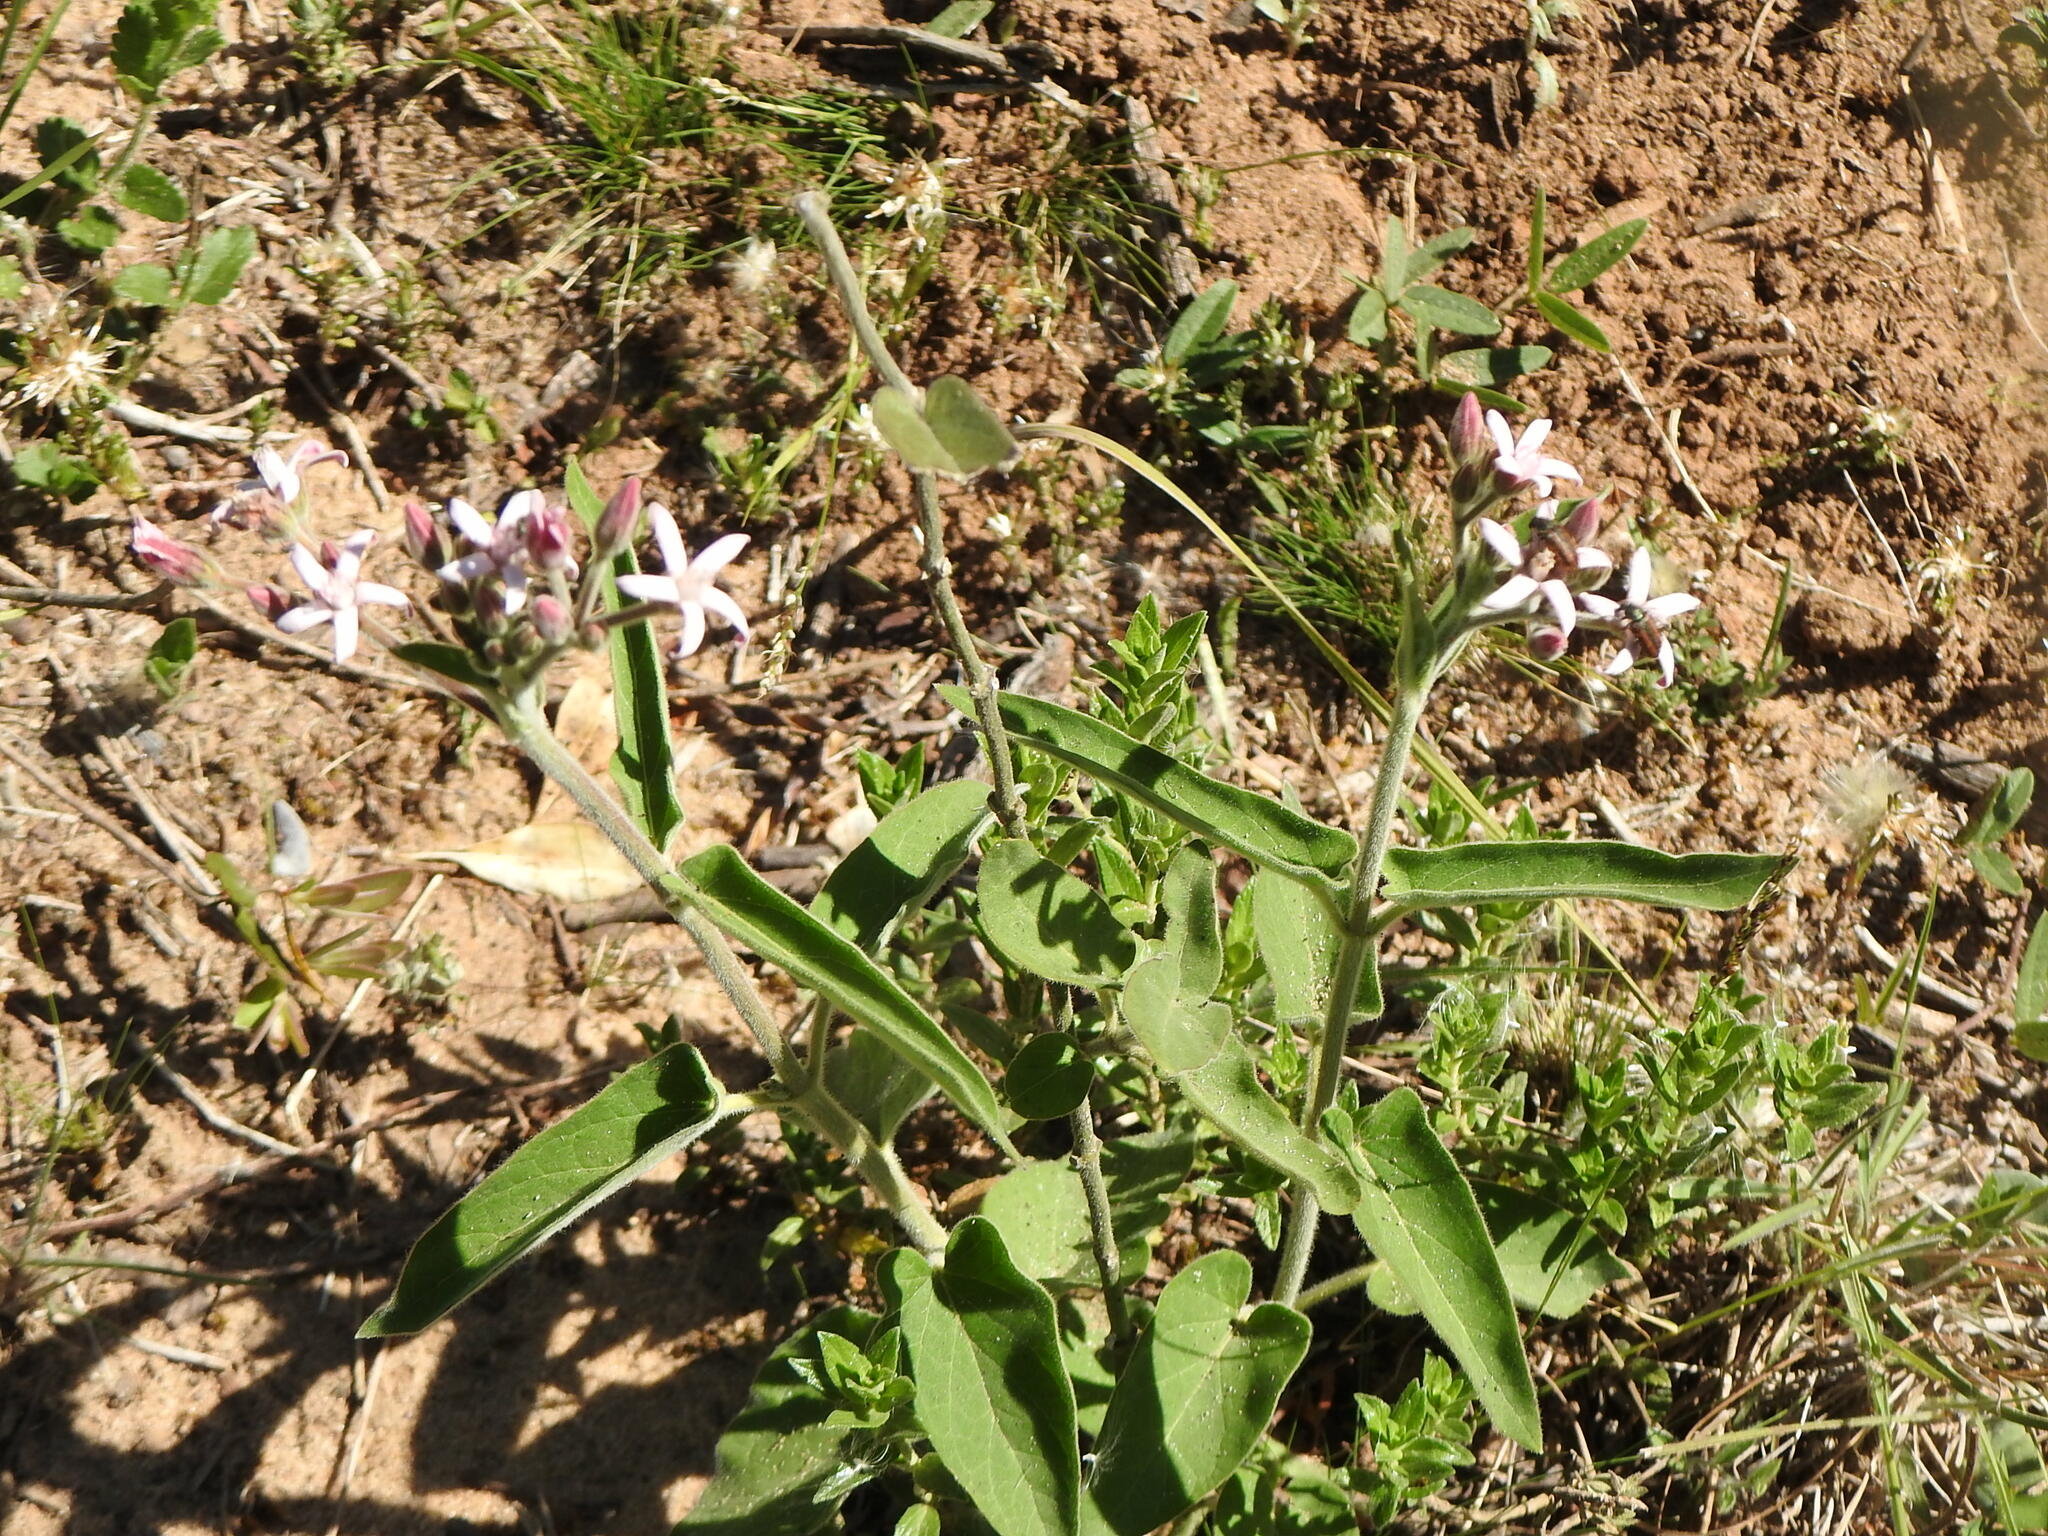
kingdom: Plantae
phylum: Tracheophyta
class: Magnoliopsida
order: Gentianales
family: Apocynaceae
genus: Oxypetalum
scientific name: Oxypetalum solanoides
